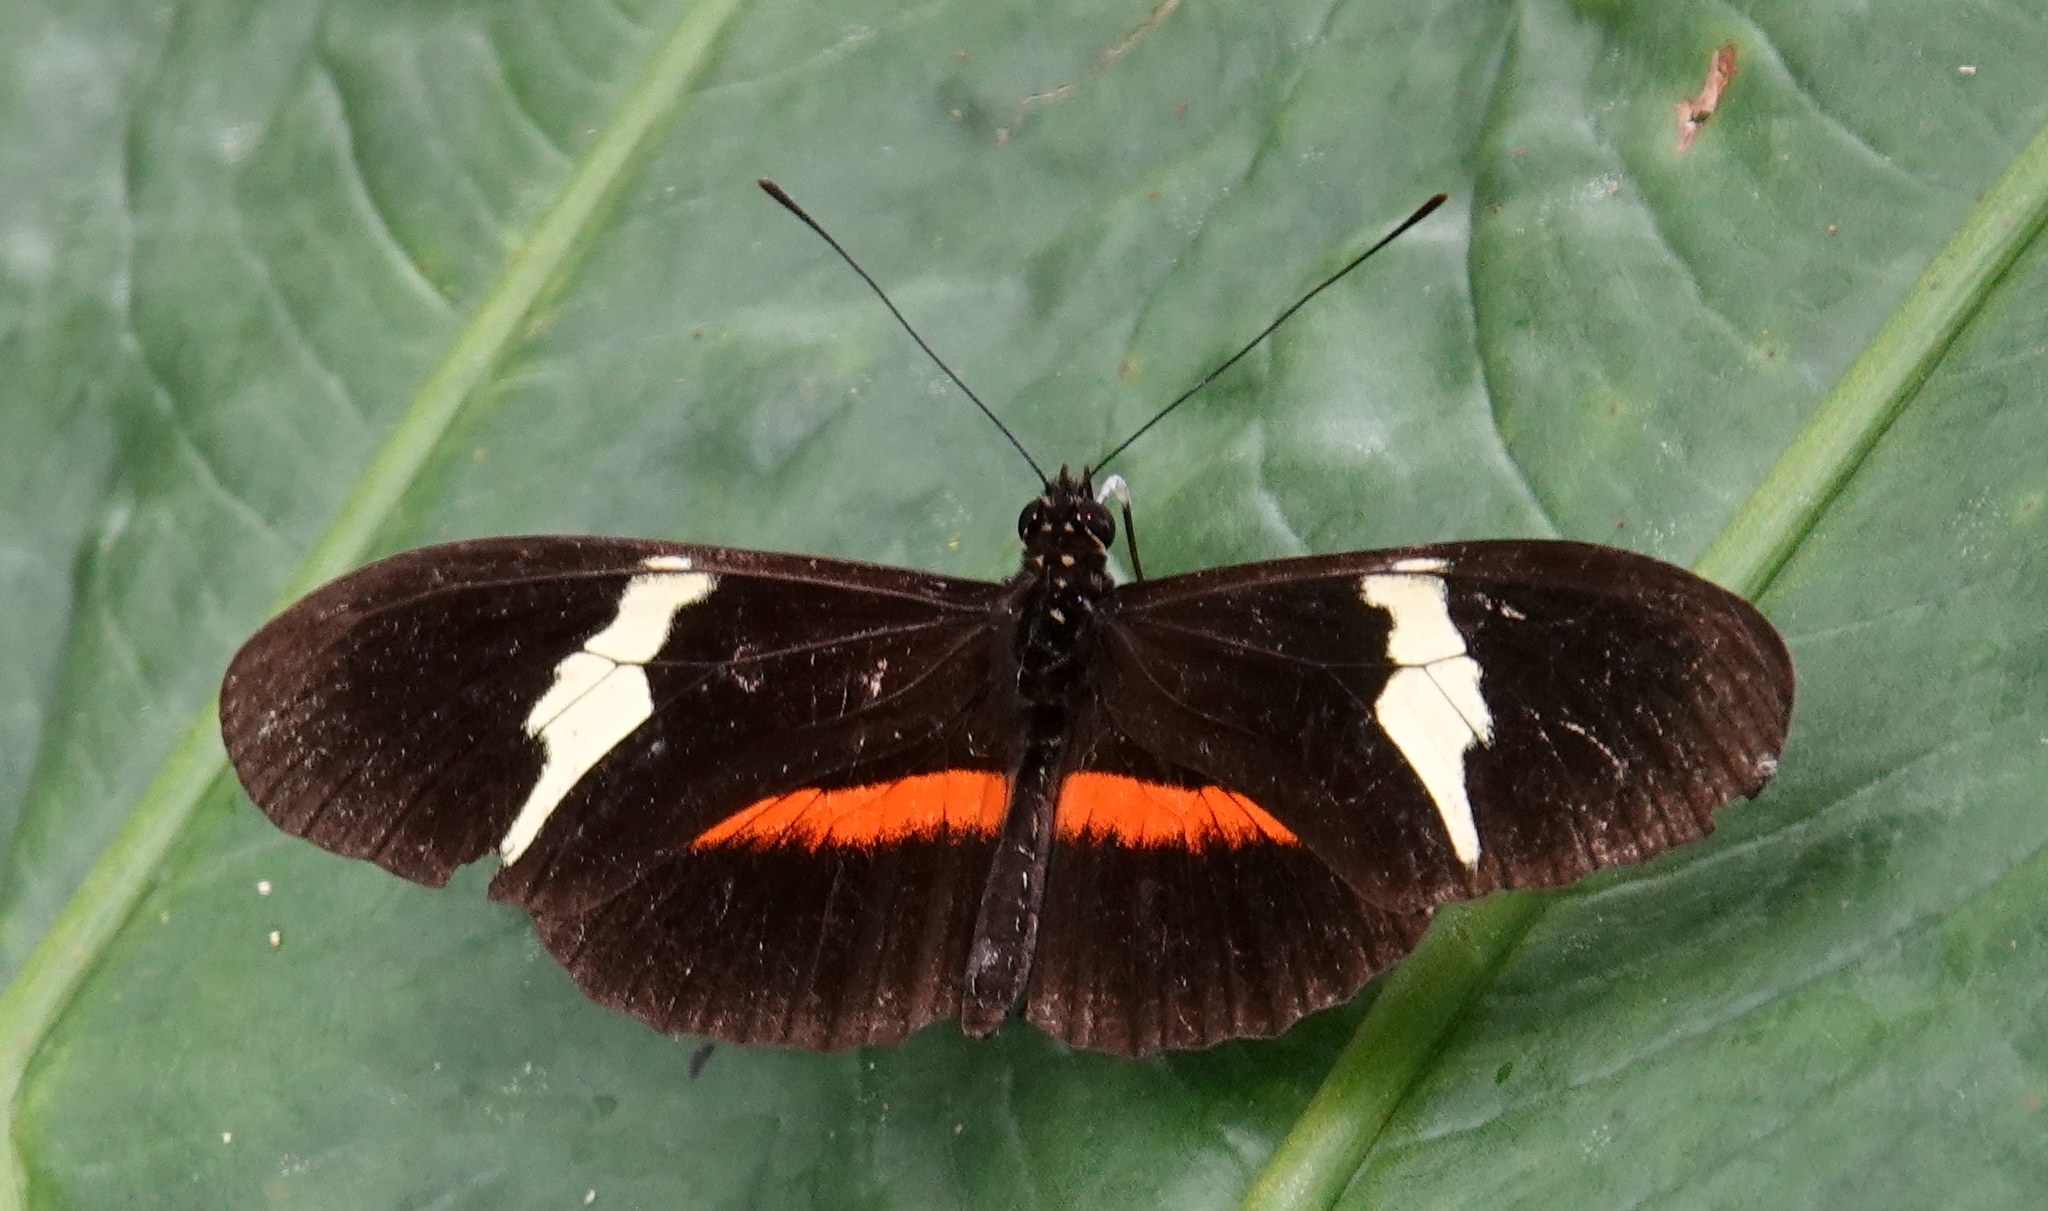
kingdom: Animalia
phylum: Arthropoda
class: Insecta
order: Lepidoptera
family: Nymphalidae
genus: Heliconius
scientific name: Heliconius clysonymus
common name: Clysonymus longwing
